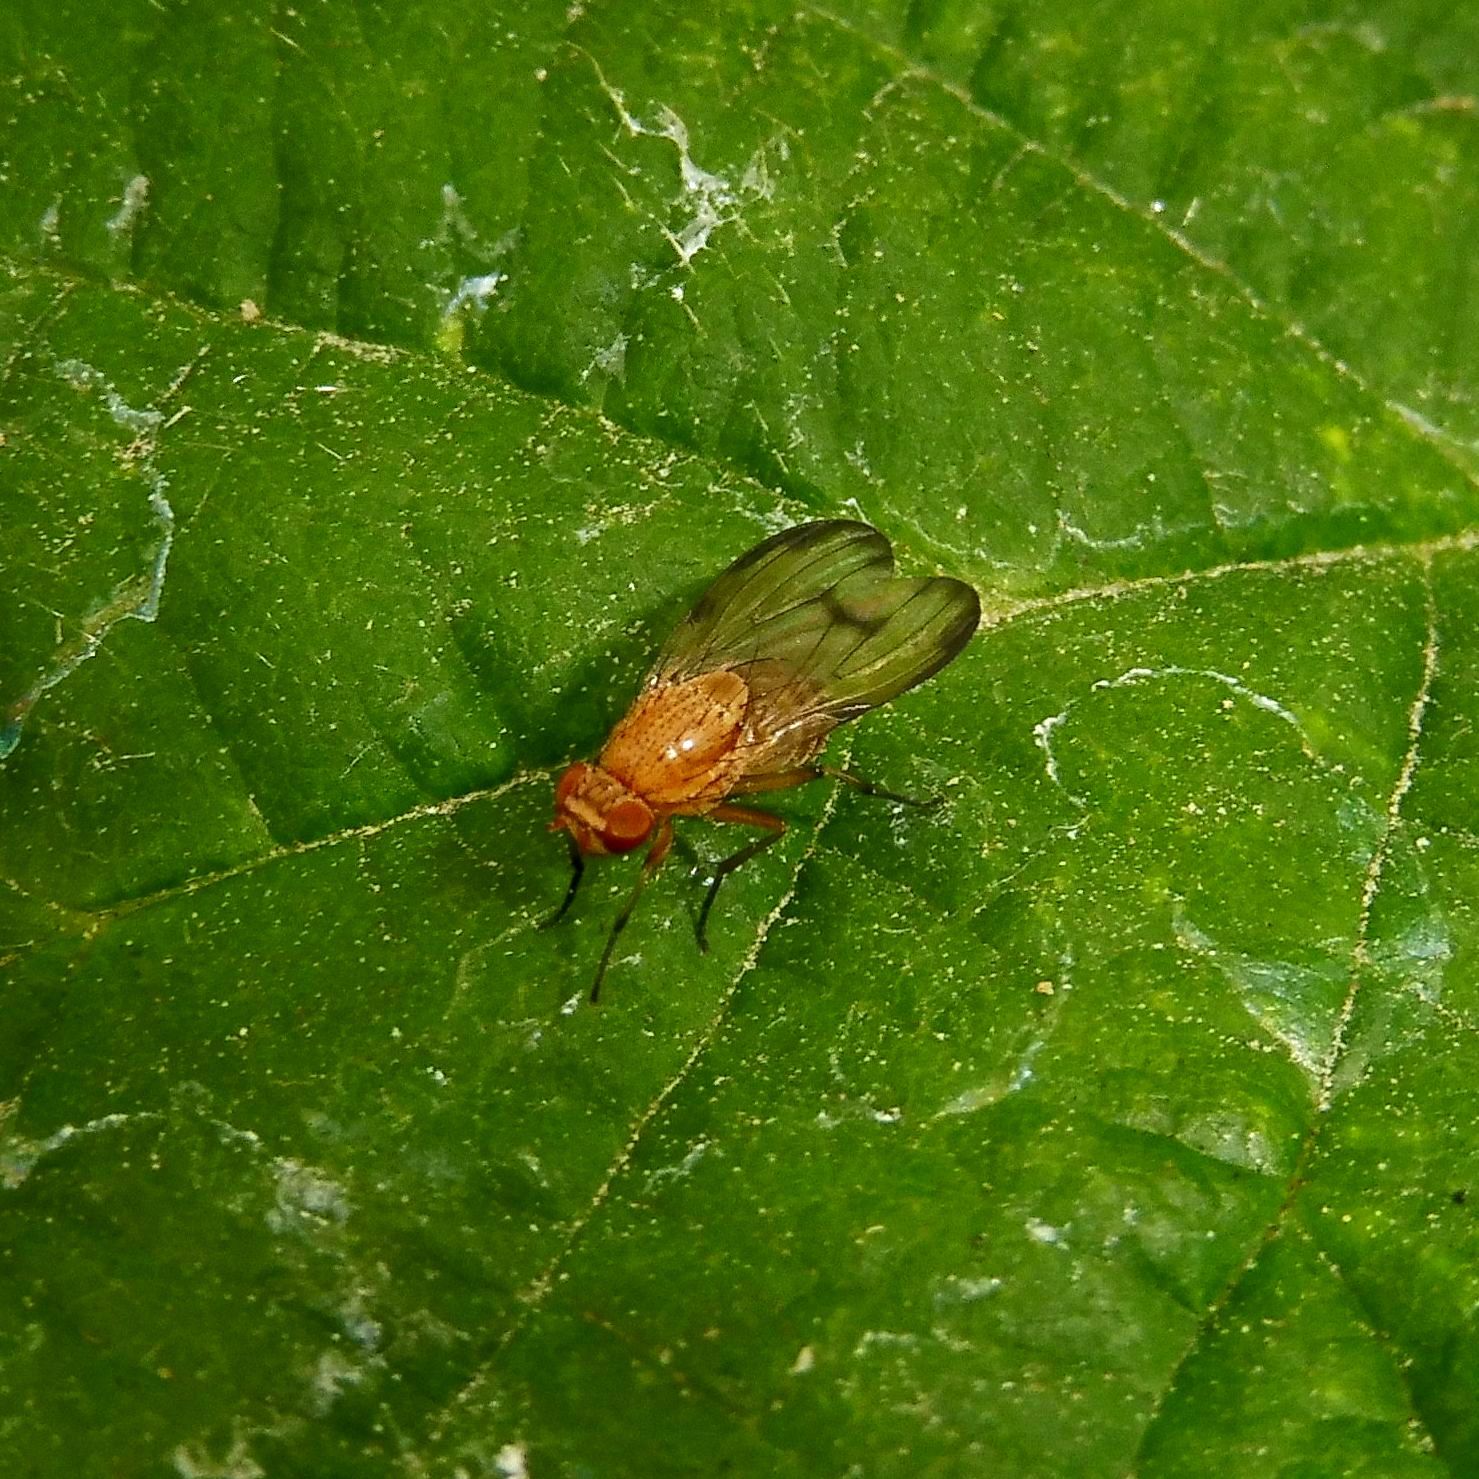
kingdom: Animalia
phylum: Arthropoda
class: Insecta
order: Diptera
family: Lauxaniidae
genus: Minettia
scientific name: Minettia inusta
